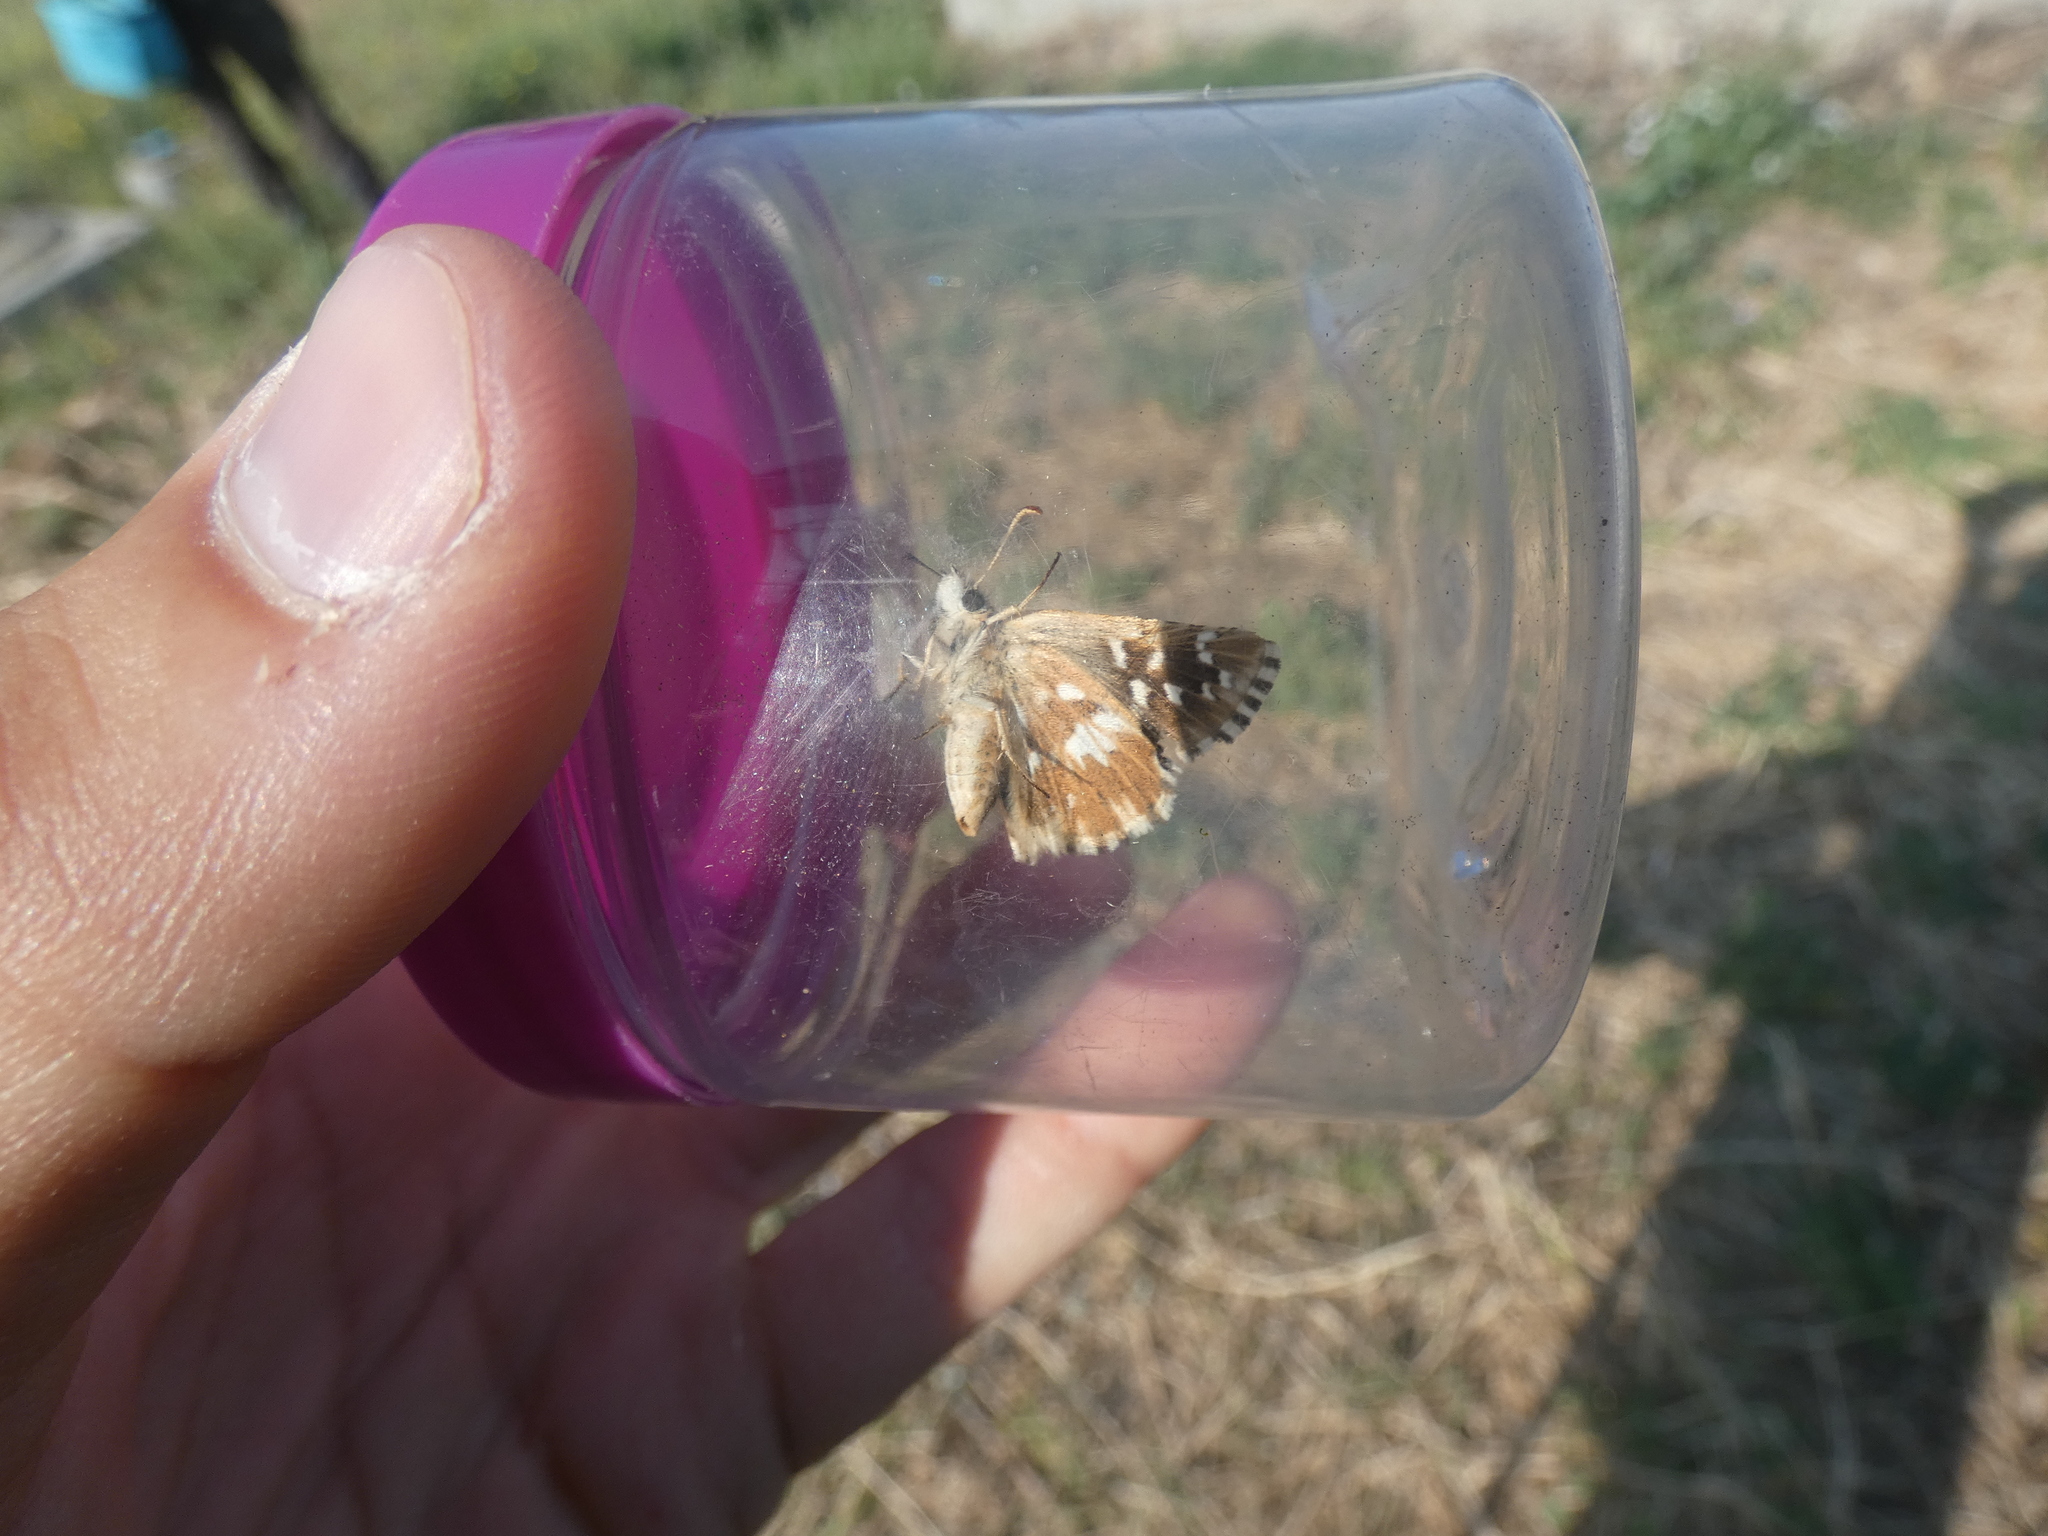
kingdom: Animalia
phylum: Arthropoda
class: Insecta
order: Lepidoptera
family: Hesperiidae
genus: Pyrgus
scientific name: Pyrgus malvoides
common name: Southern grizzled skipper
